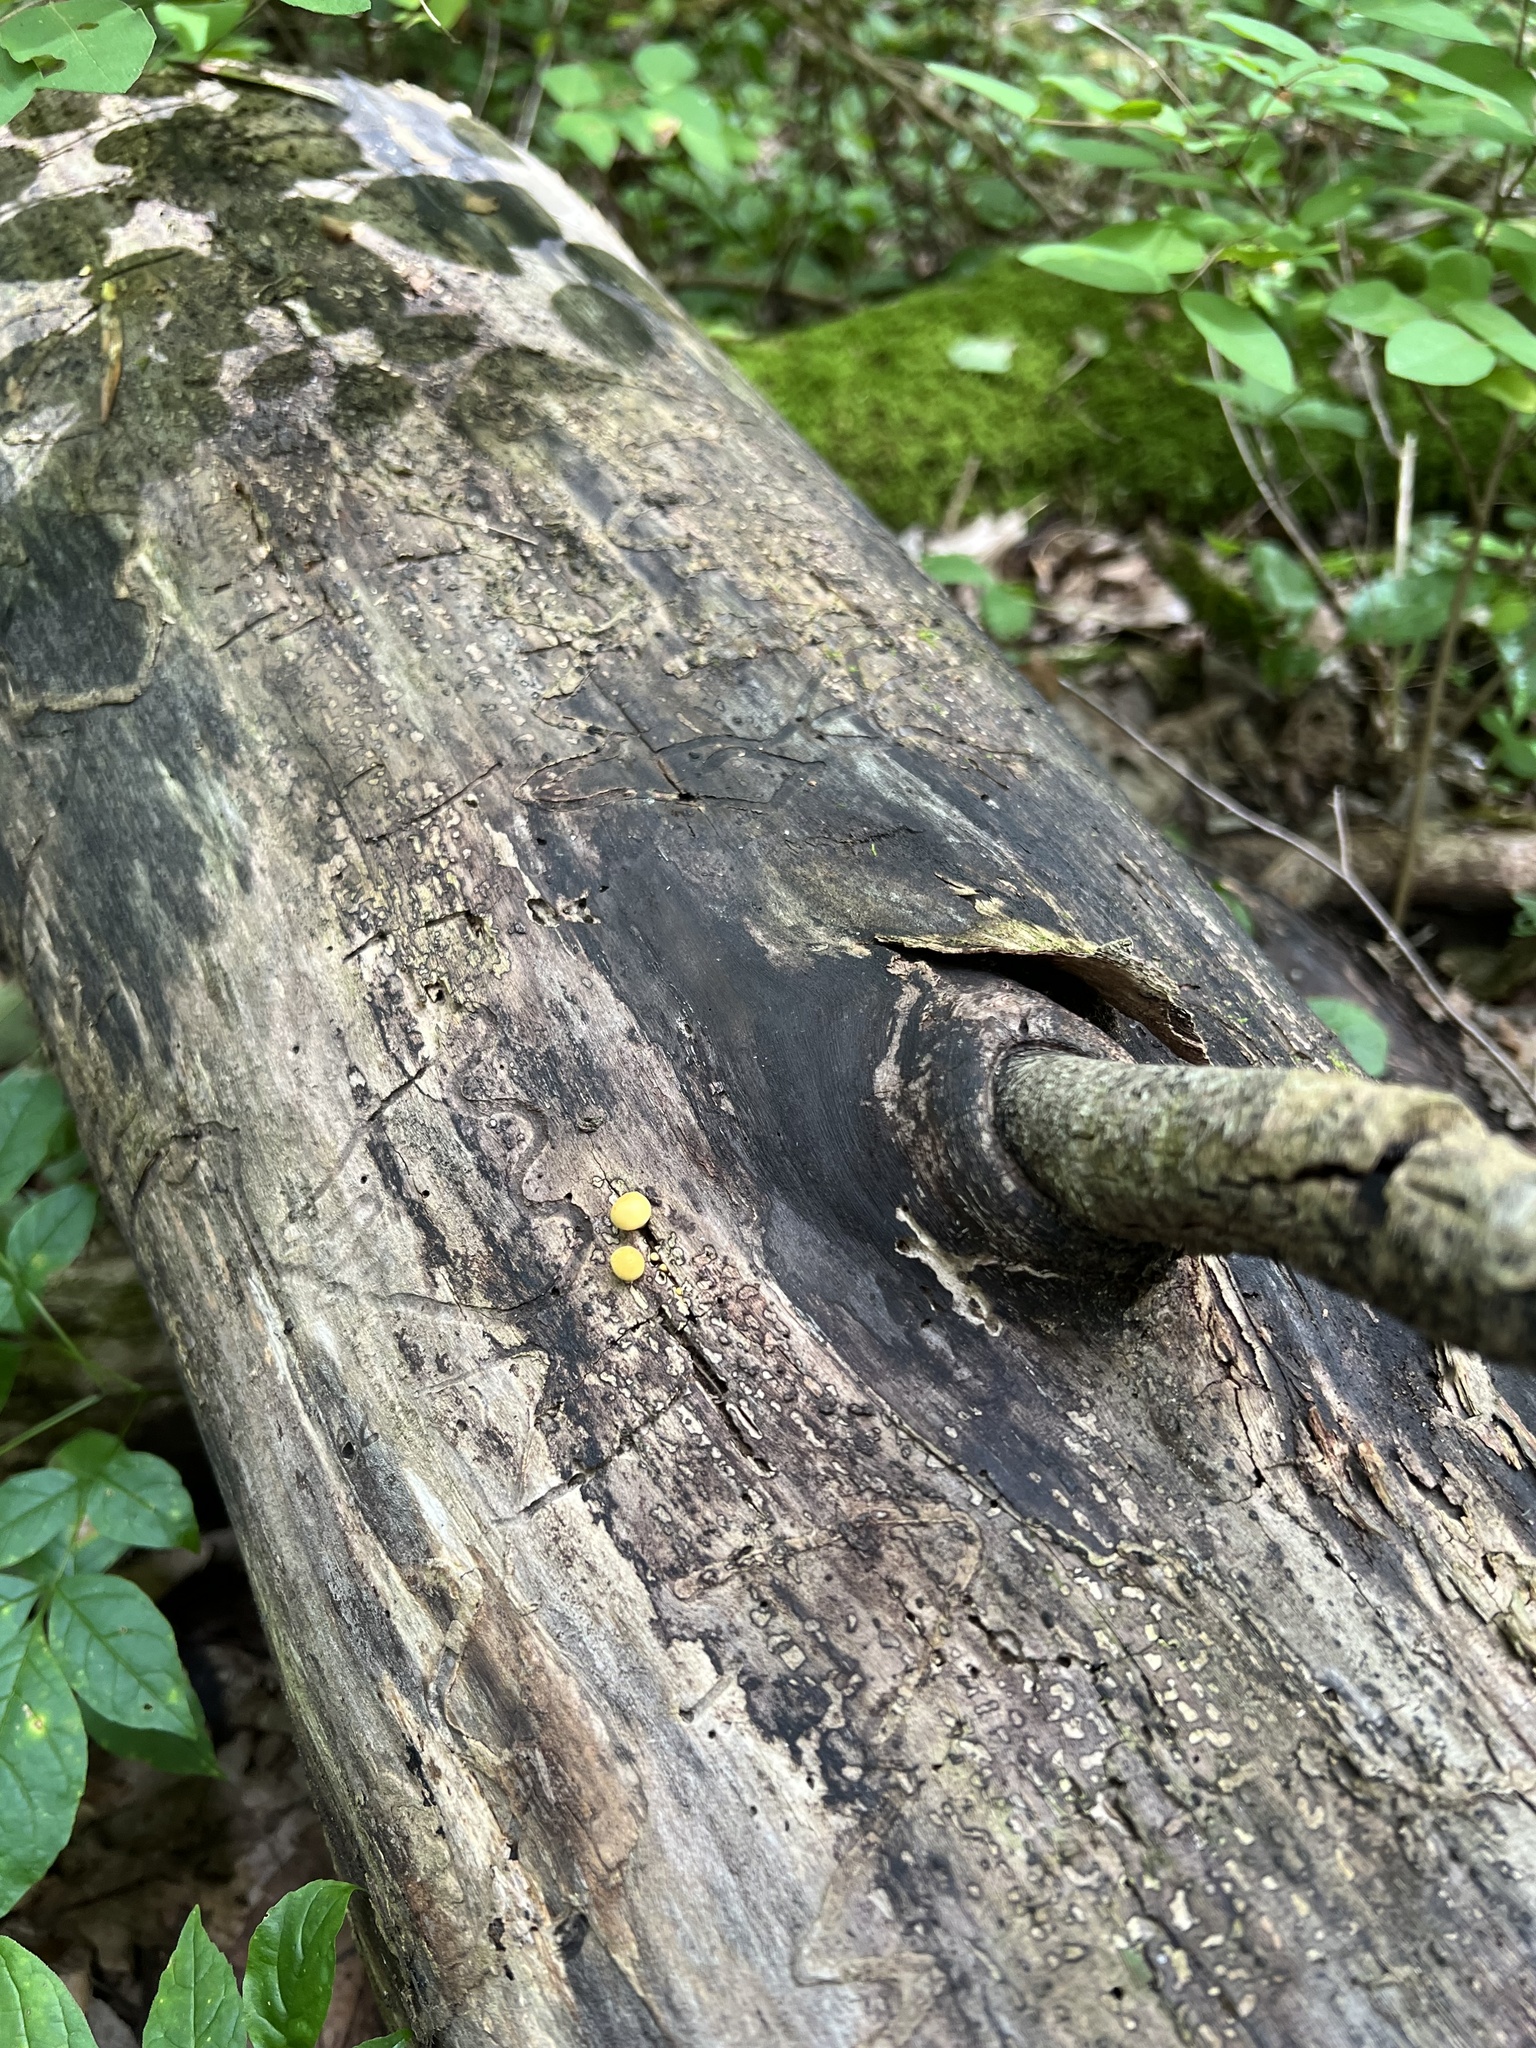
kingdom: Fungi
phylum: Basidiomycota
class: Agaricomycetes
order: Agaricales
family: Hymenogastraceae
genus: Gymnopilus
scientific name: Gymnopilus luteus
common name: Yellow gymnopilus
